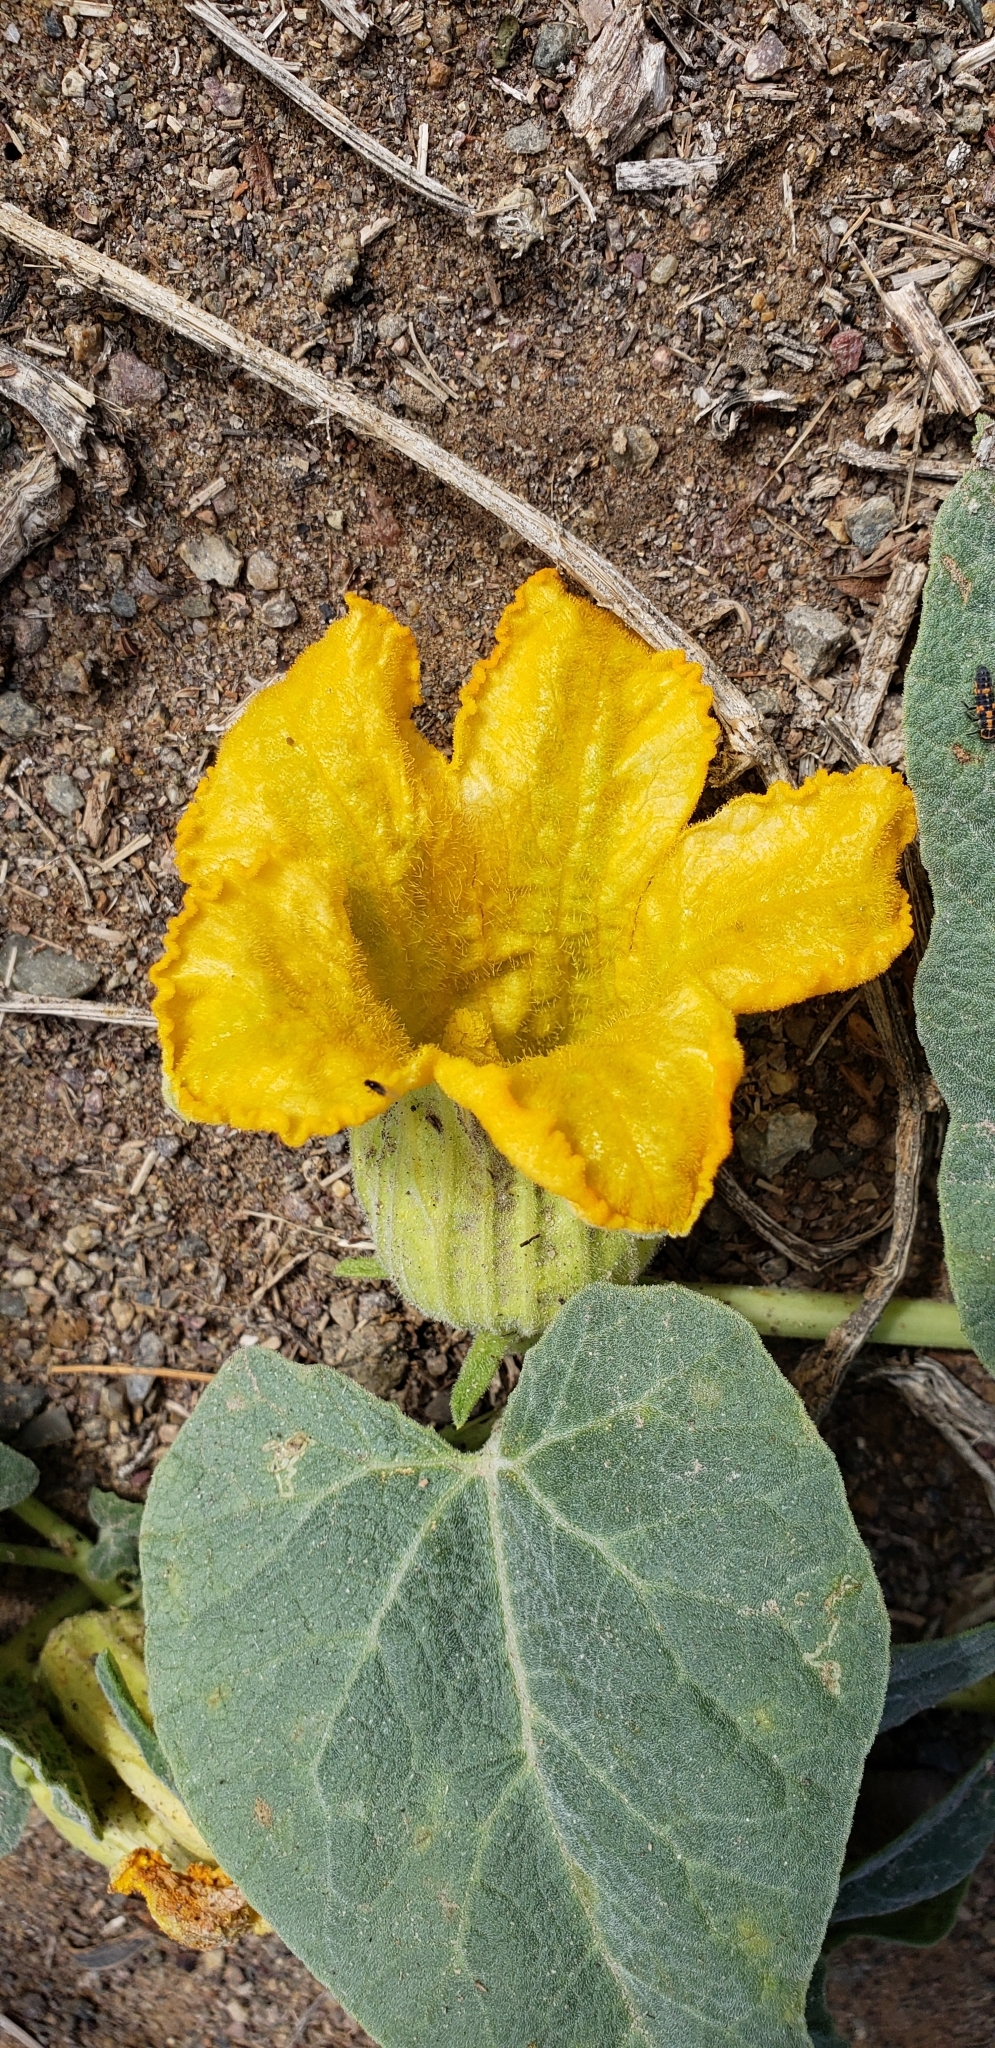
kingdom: Plantae
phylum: Tracheophyta
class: Magnoliopsida
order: Cucurbitales
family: Cucurbitaceae
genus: Cucurbita
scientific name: Cucurbita foetidissima
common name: Buffalo gourd
